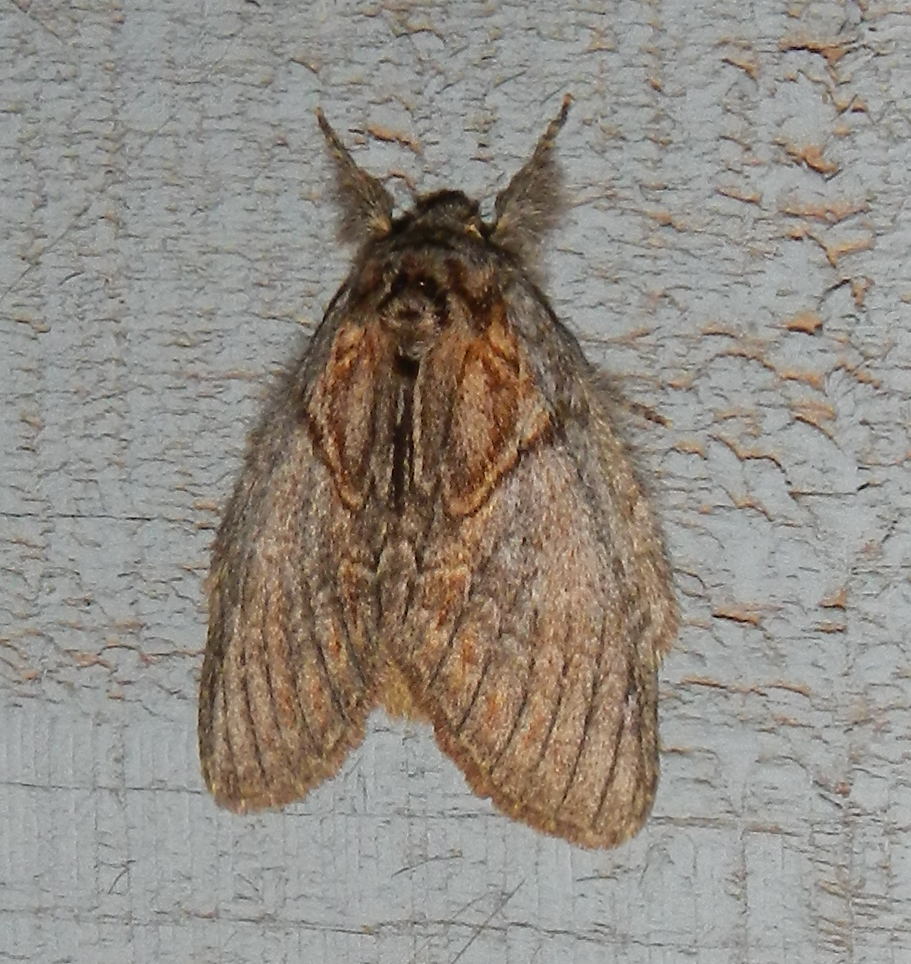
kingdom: Animalia
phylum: Arthropoda
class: Insecta
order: Lepidoptera
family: Notodontidae
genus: Peridea
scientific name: Peridea basitriens
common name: Oval-based prominent
